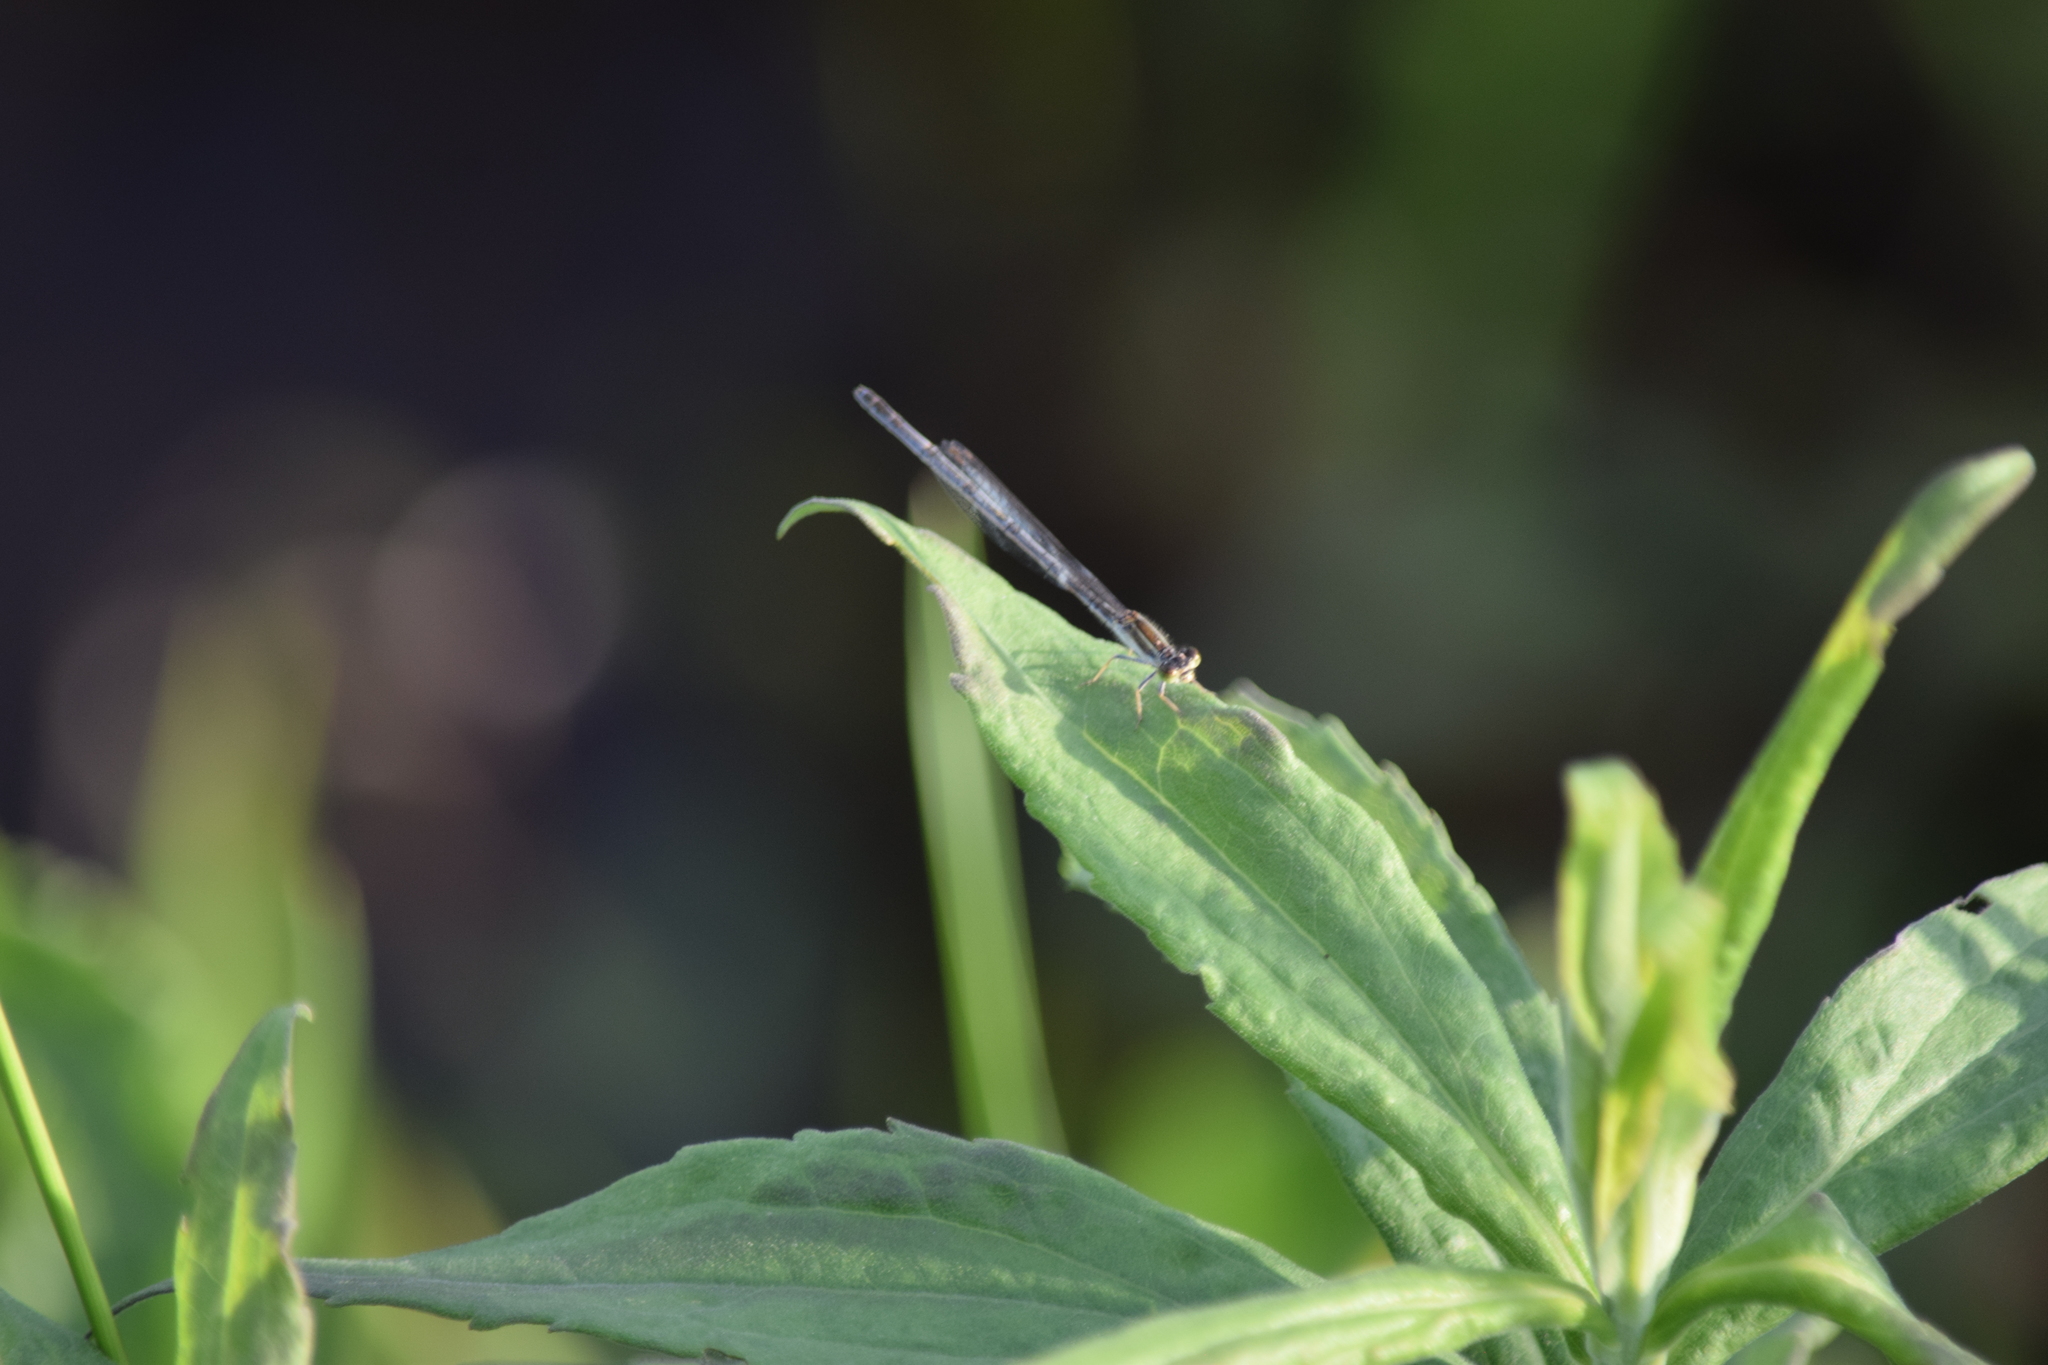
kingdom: Animalia
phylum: Arthropoda
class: Insecta
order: Odonata
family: Coenagrionidae
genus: Ischnura
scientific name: Ischnura hastata
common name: Citrine forktail
